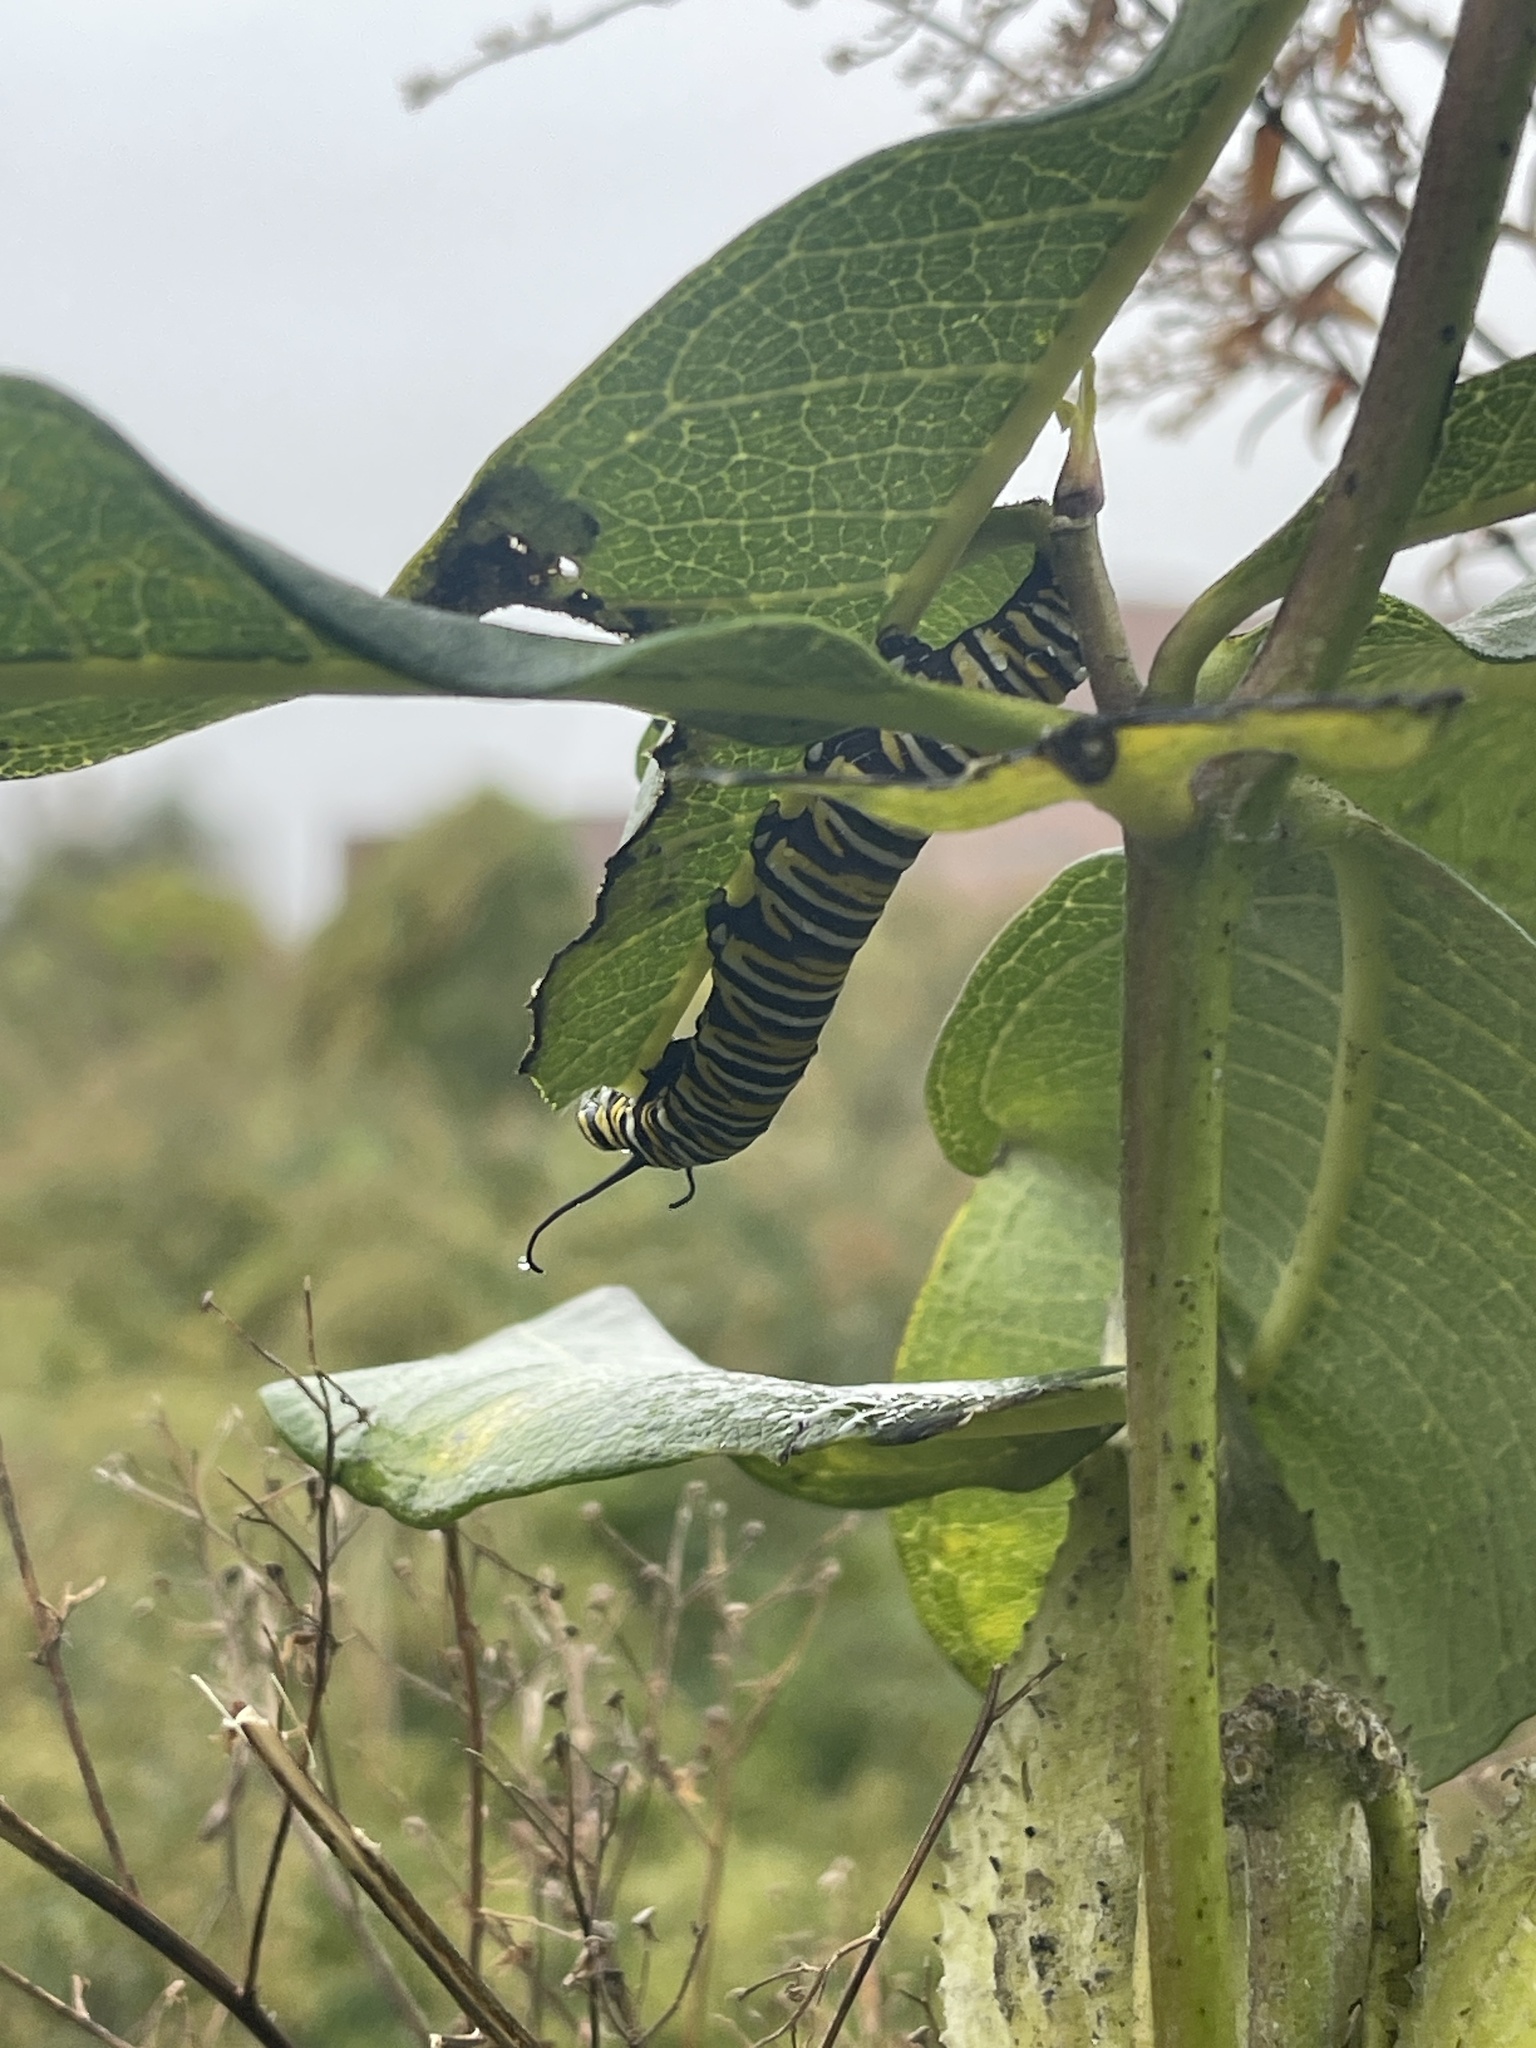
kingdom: Animalia
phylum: Arthropoda
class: Insecta
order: Lepidoptera
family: Nymphalidae
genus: Danaus
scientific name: Danaus plexippus
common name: Monarch
